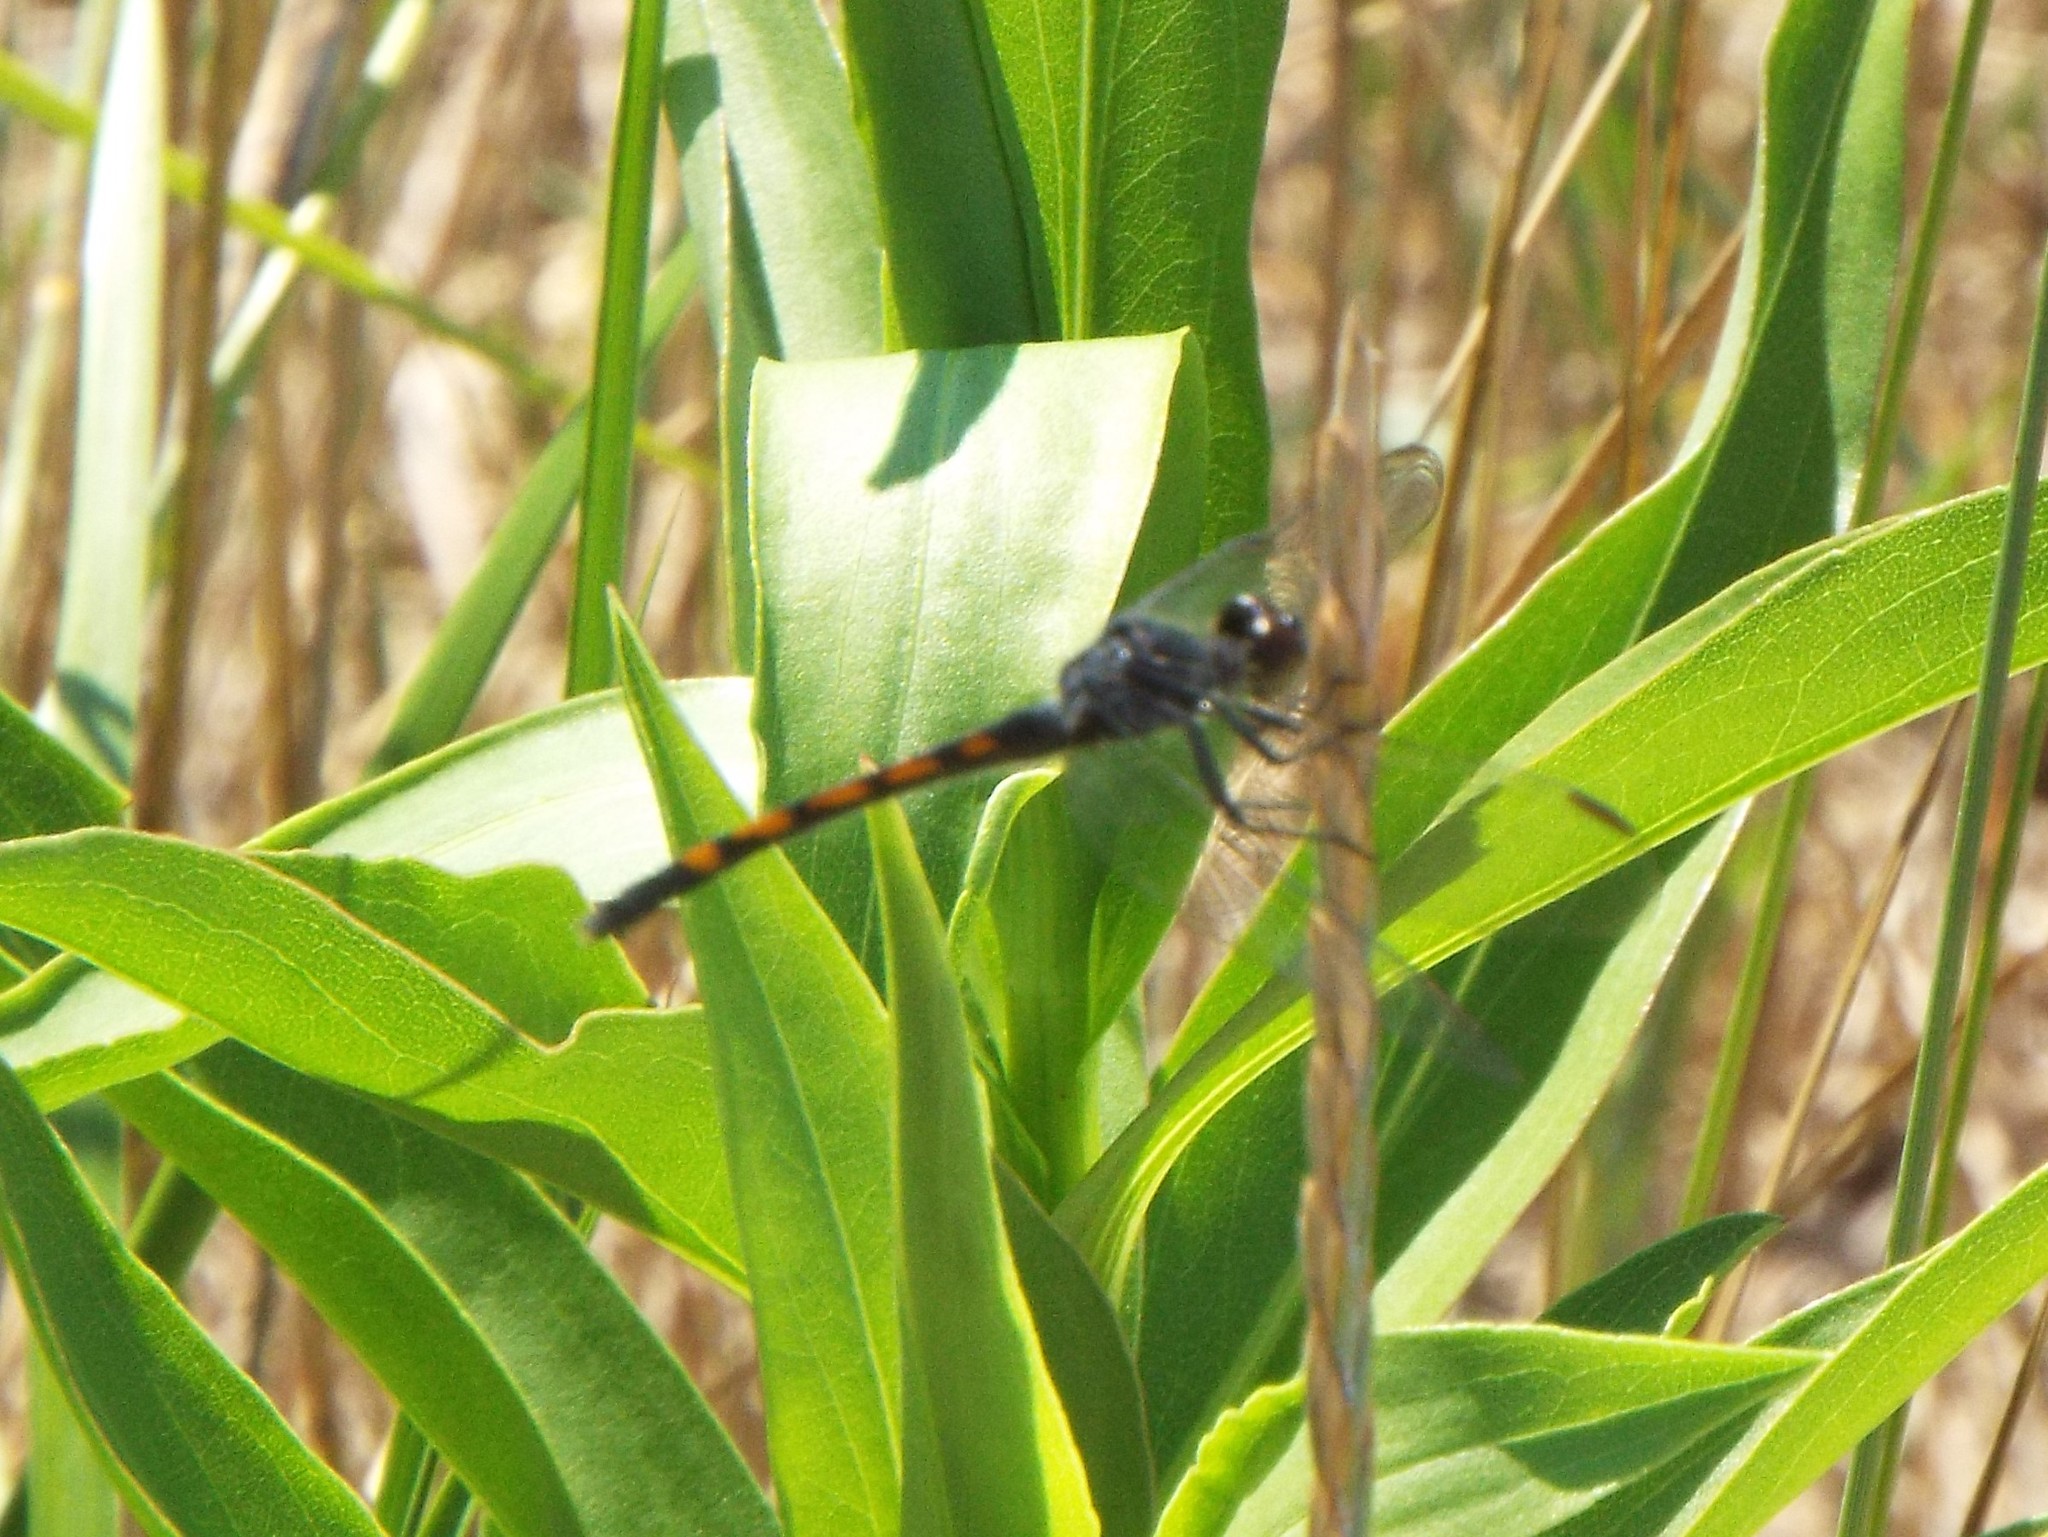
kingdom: Animalia
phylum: Arthropoda
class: Insecta
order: Odonata
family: Libellulidae
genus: Erythrodiplax
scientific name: Erythrodiplax berenice
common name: Seaside dragonlet
